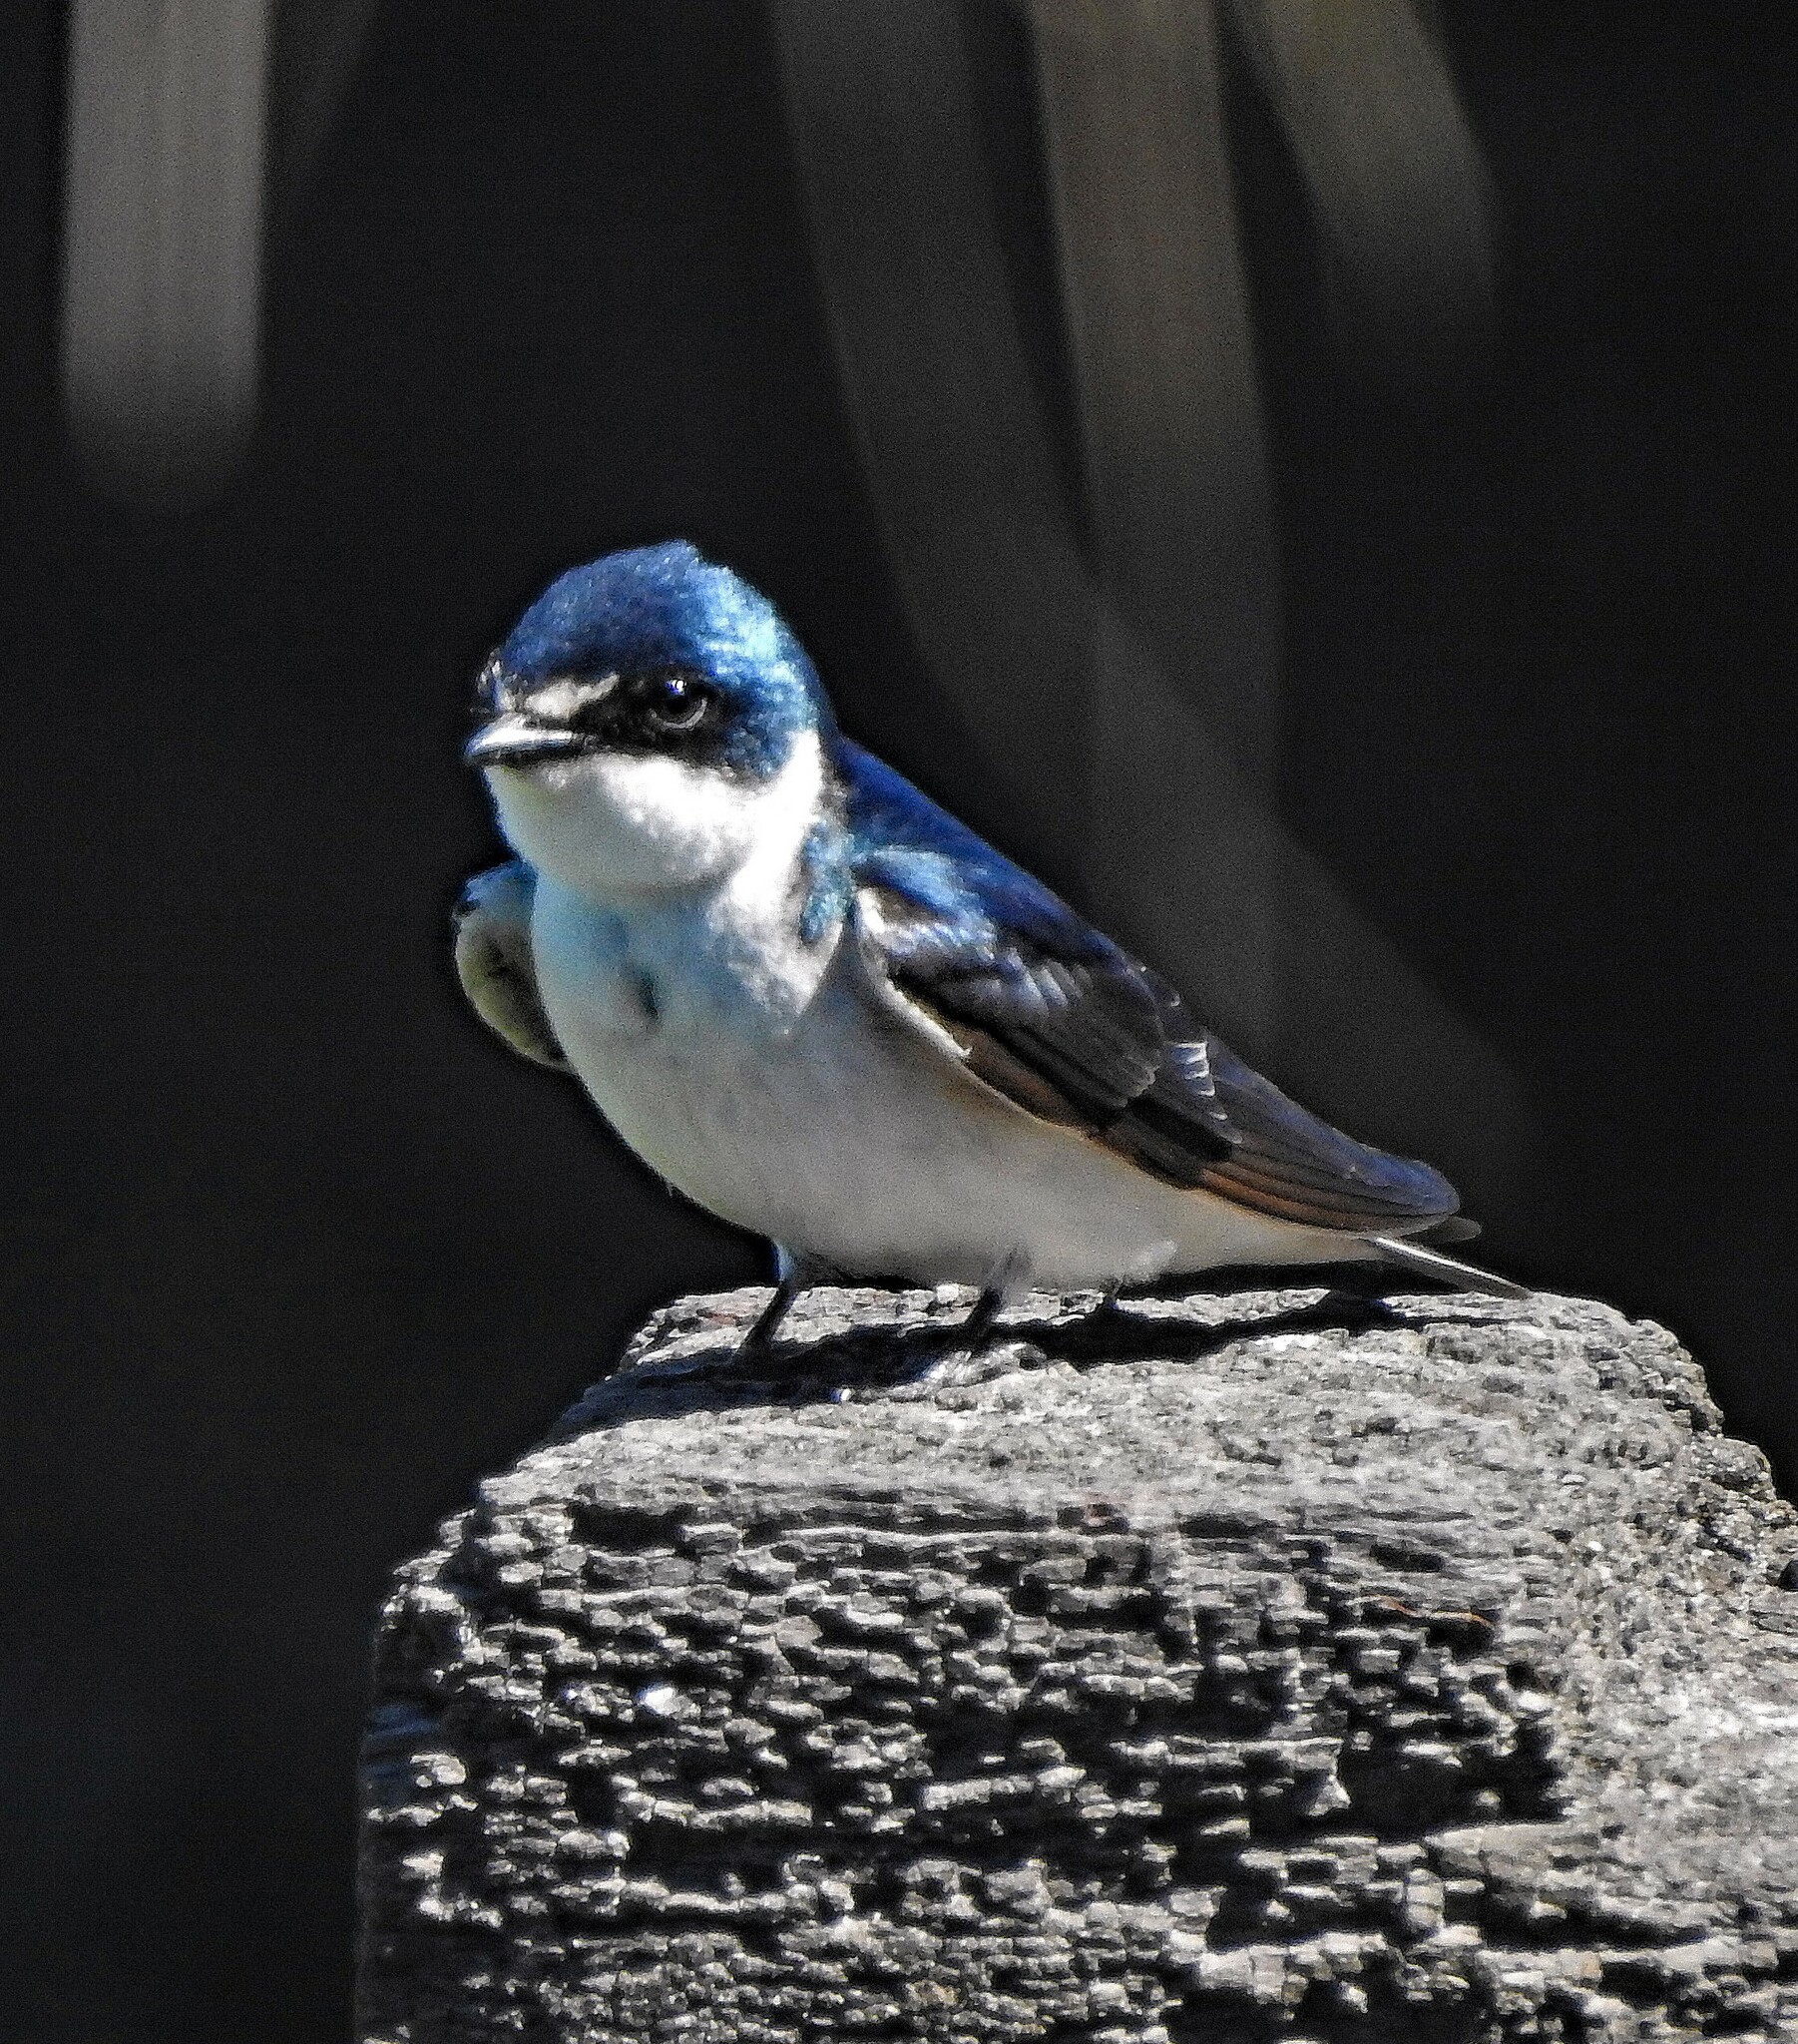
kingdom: Animalia
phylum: Chordata
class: Aves
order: Passeriformes
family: Hirundinidae
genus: Tachycineta
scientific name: Tachycineta leucorrhoa
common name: White-rumped swallow
